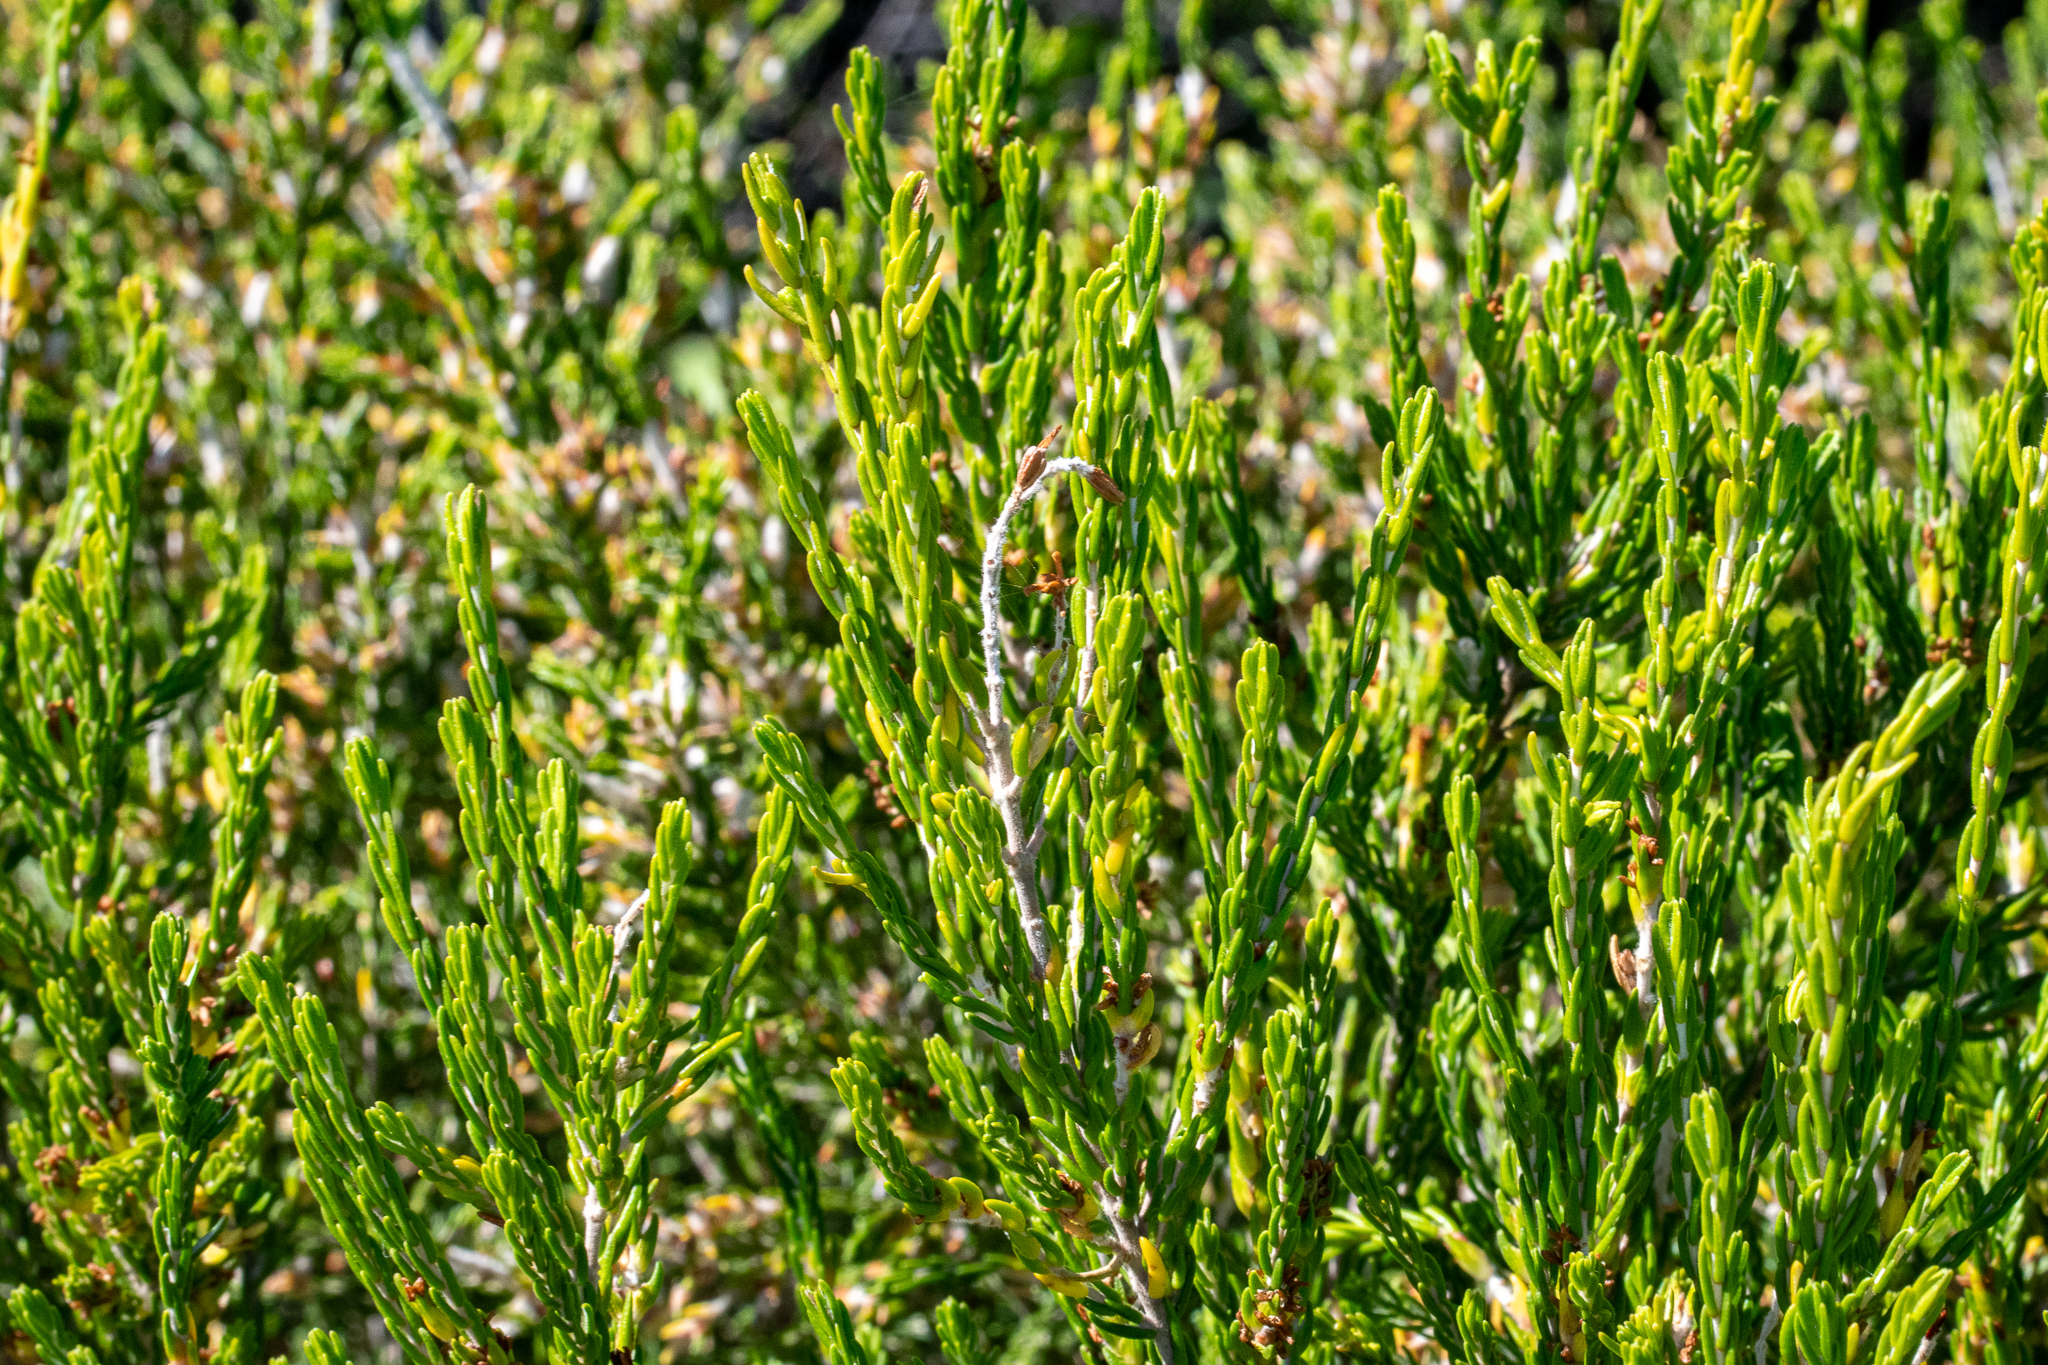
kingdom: Plantae
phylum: Tracheophyta
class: Magnoliopsida
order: Malvales
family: Thymelaeaceae
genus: Passerina
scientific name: Passerina corymbosa
